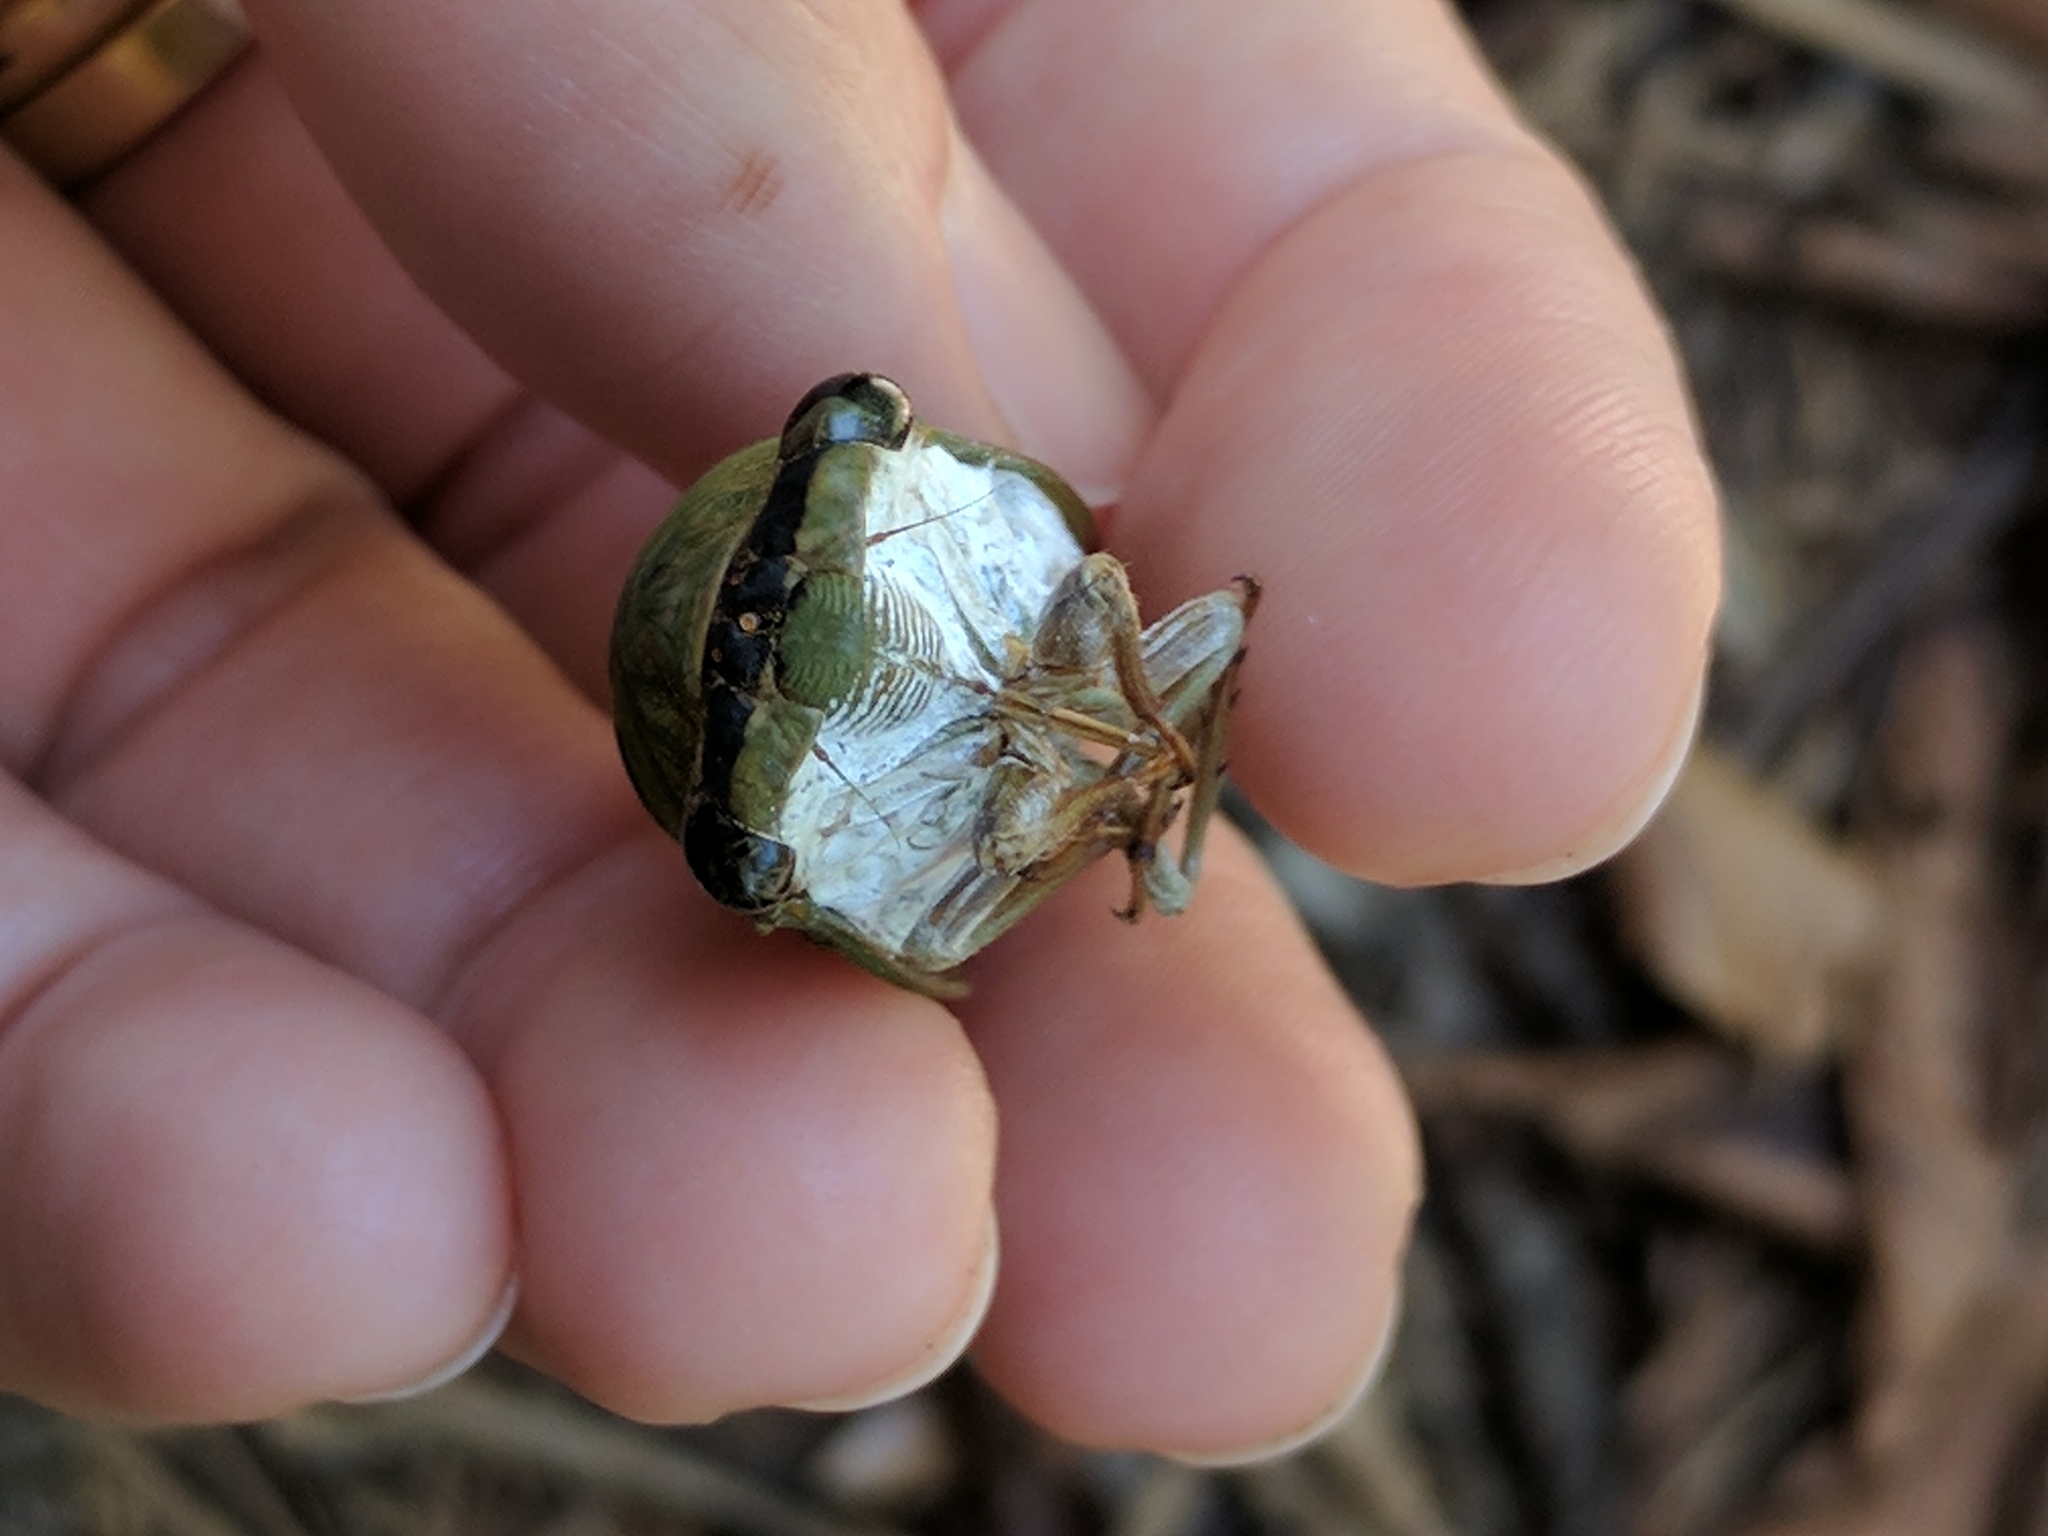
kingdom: Animalia
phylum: Arthropoda
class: Insecta
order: Hemiptera
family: Cicadidae
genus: Neotibicen
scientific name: Neotibicen superbus
